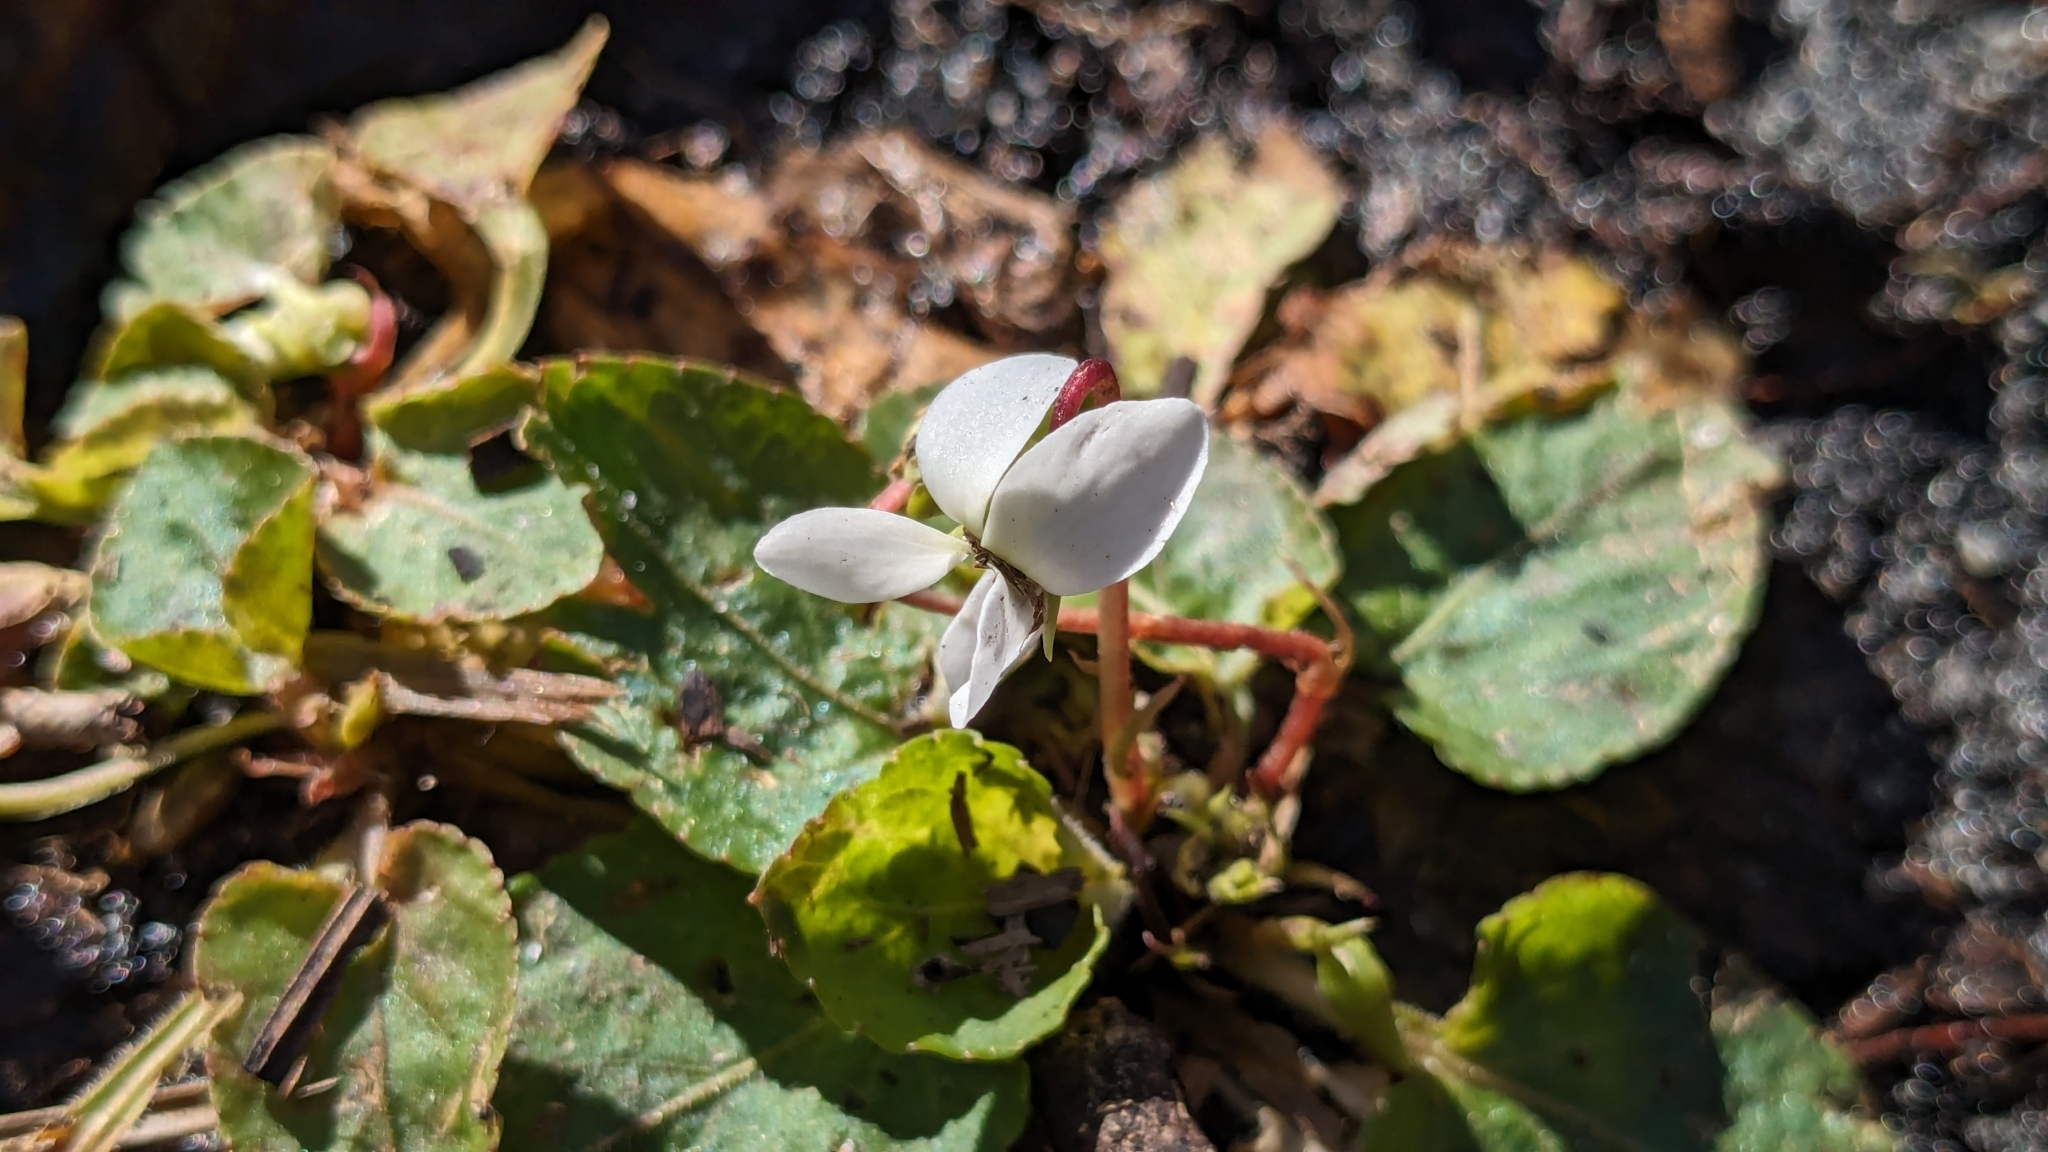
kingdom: Plantae
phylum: Tracheophyta
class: Magnoliopsida
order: Malpighiales
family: Violaceae
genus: Viola
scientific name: Viola primulifolia
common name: Primrose-leaf violet
